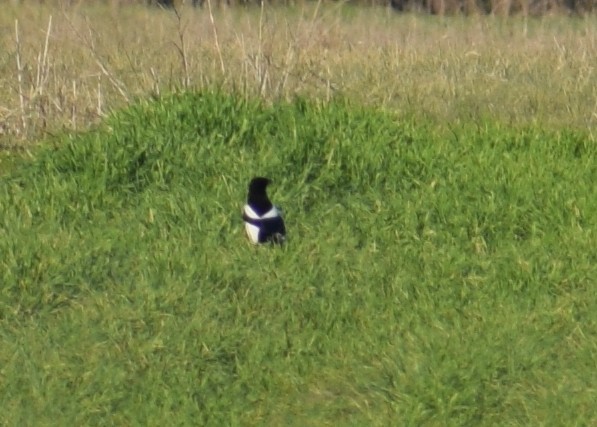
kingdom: Animalia
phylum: Chordata
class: Aves
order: Passeriformes
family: Corvidae
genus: Pica
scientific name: Pica pica
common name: Eurasian magpie
